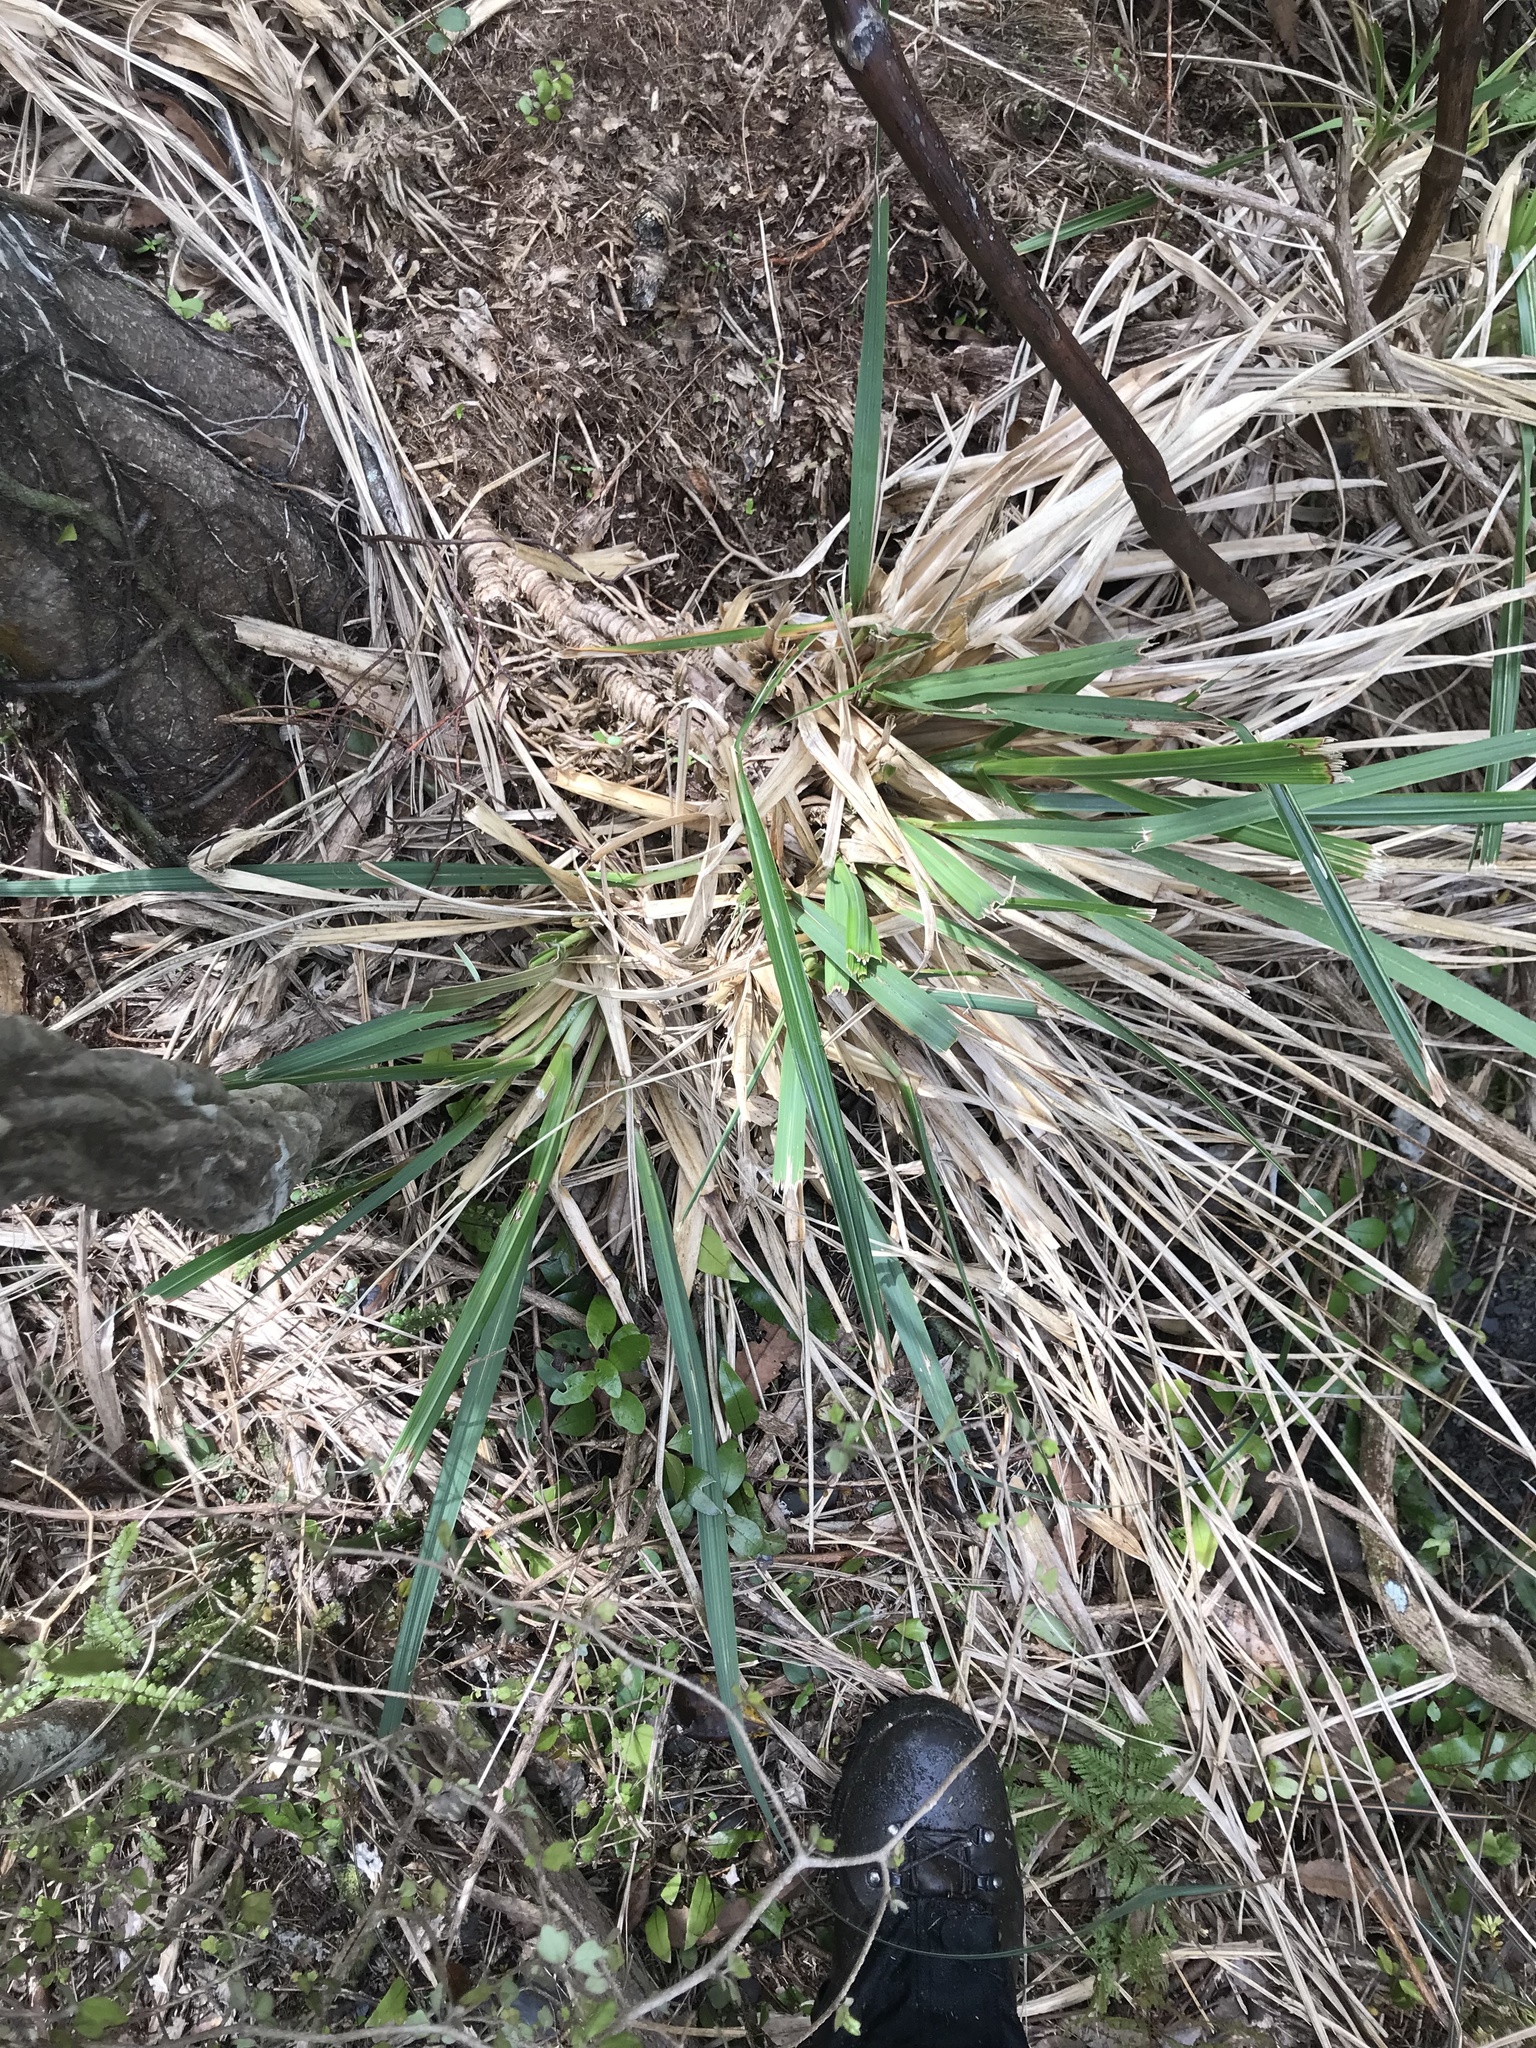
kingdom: Plantae
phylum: Tracheophyta
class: Liliopsida
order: Poales
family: Poaceae
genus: Austroderia
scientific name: Austroderia fulvida
